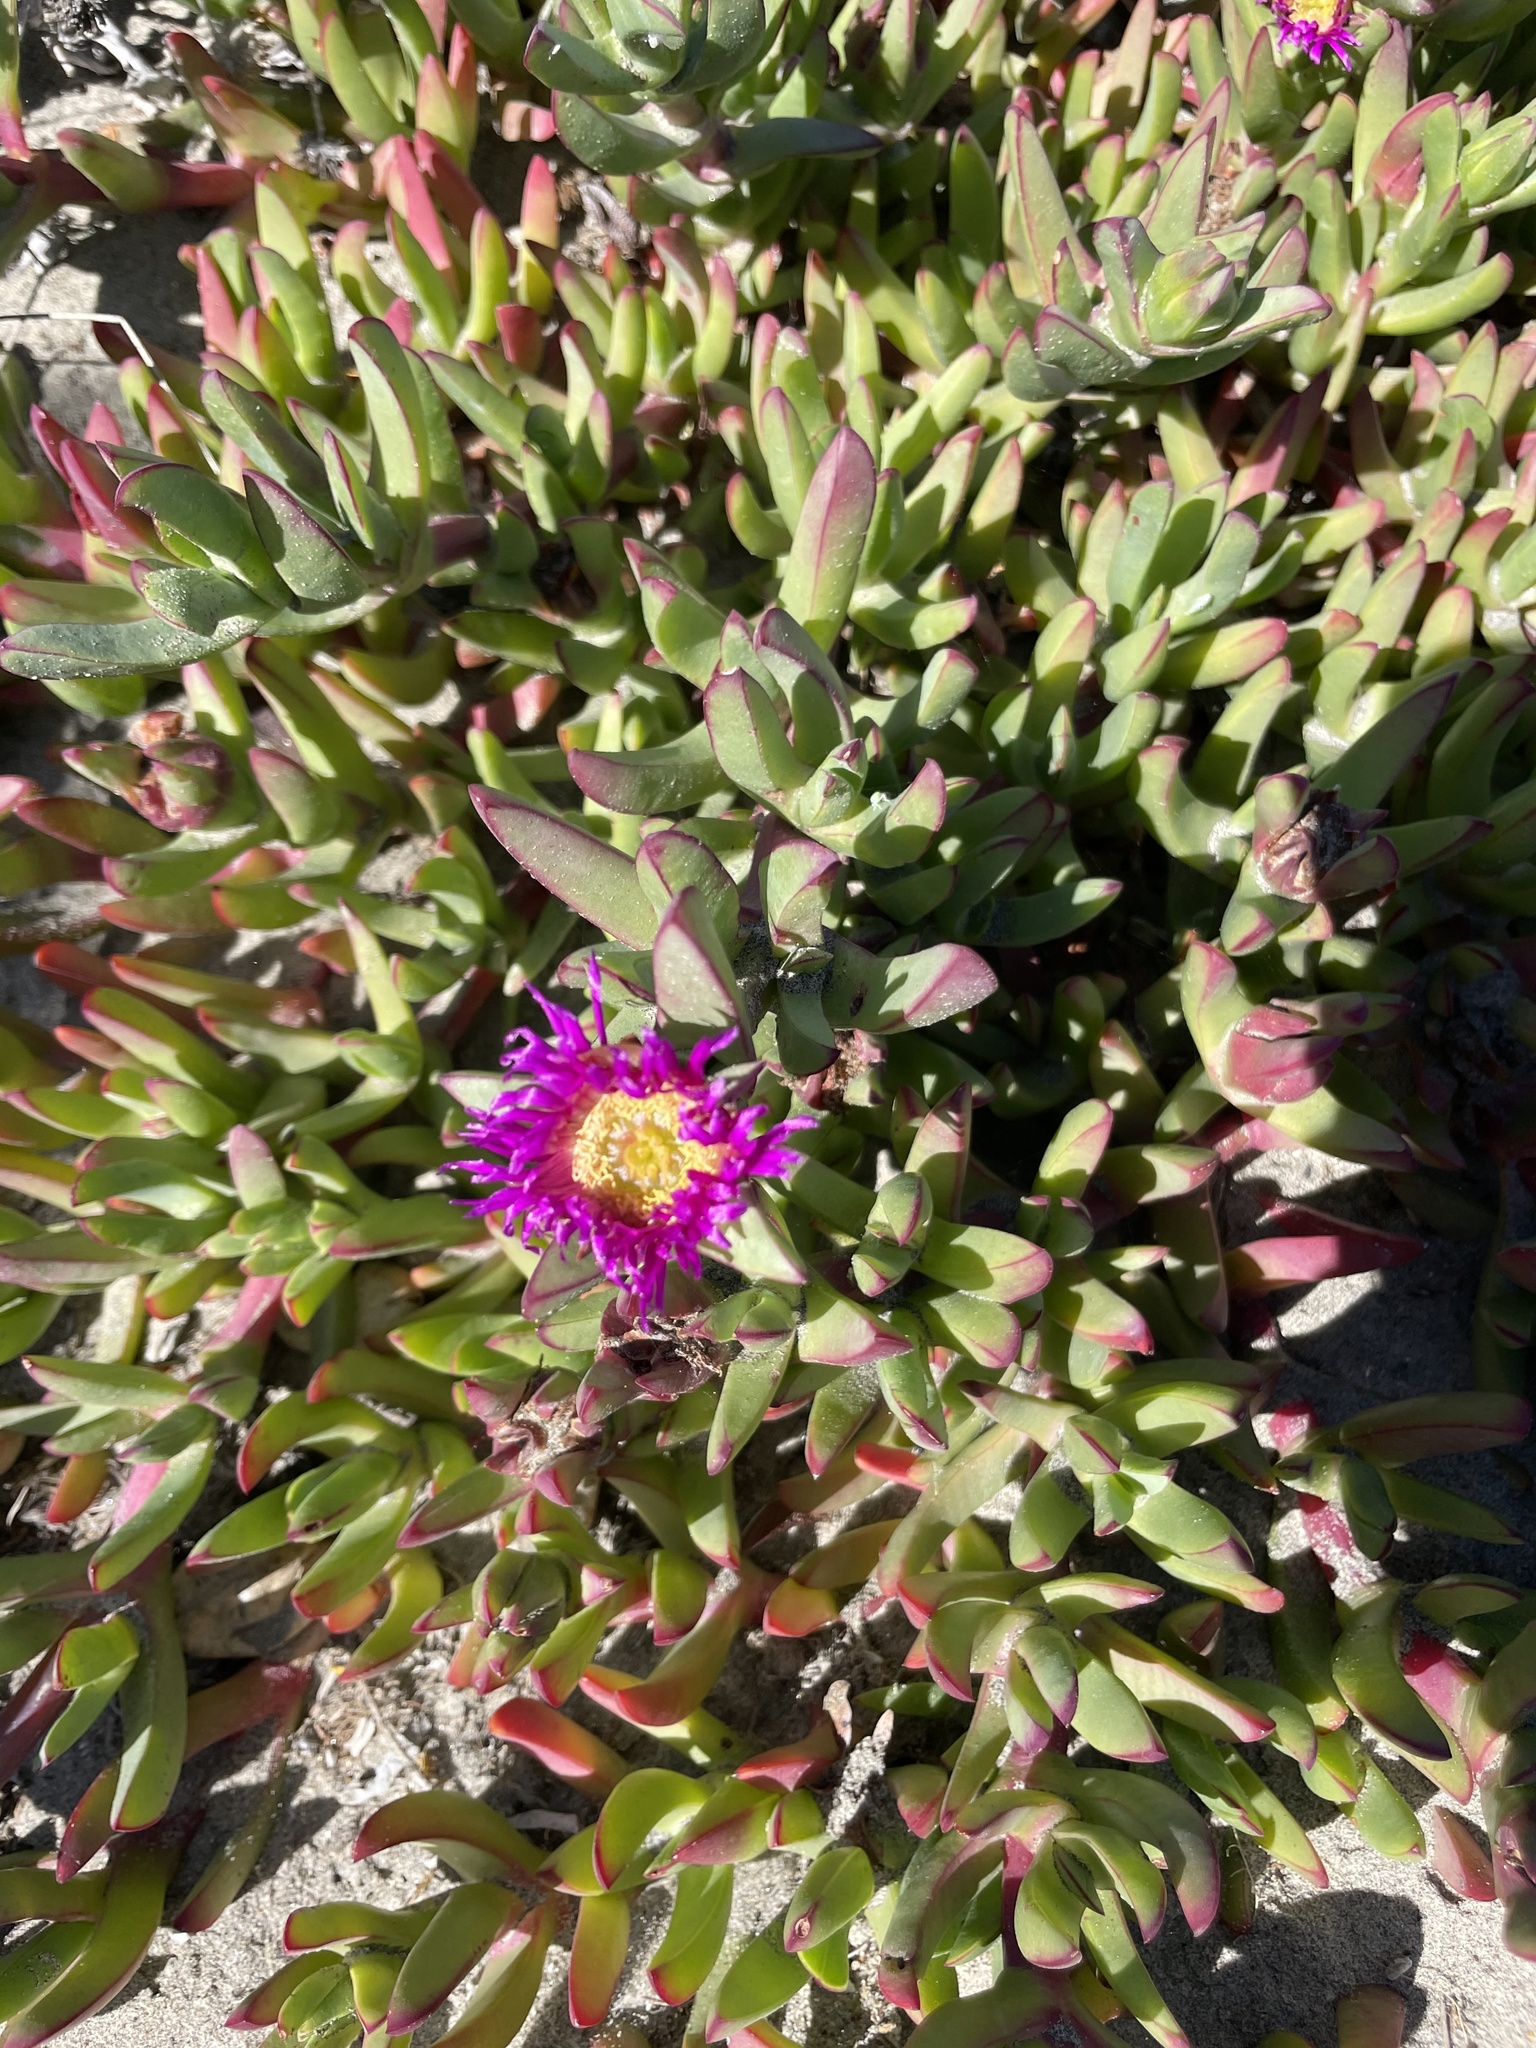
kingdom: Plantae
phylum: Tracheophyta
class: Magnoliopsida
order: Caryophyllales
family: Aizoaceae
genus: Carpobrotus
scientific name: Carpobrotus chilensis
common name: Sea fig
